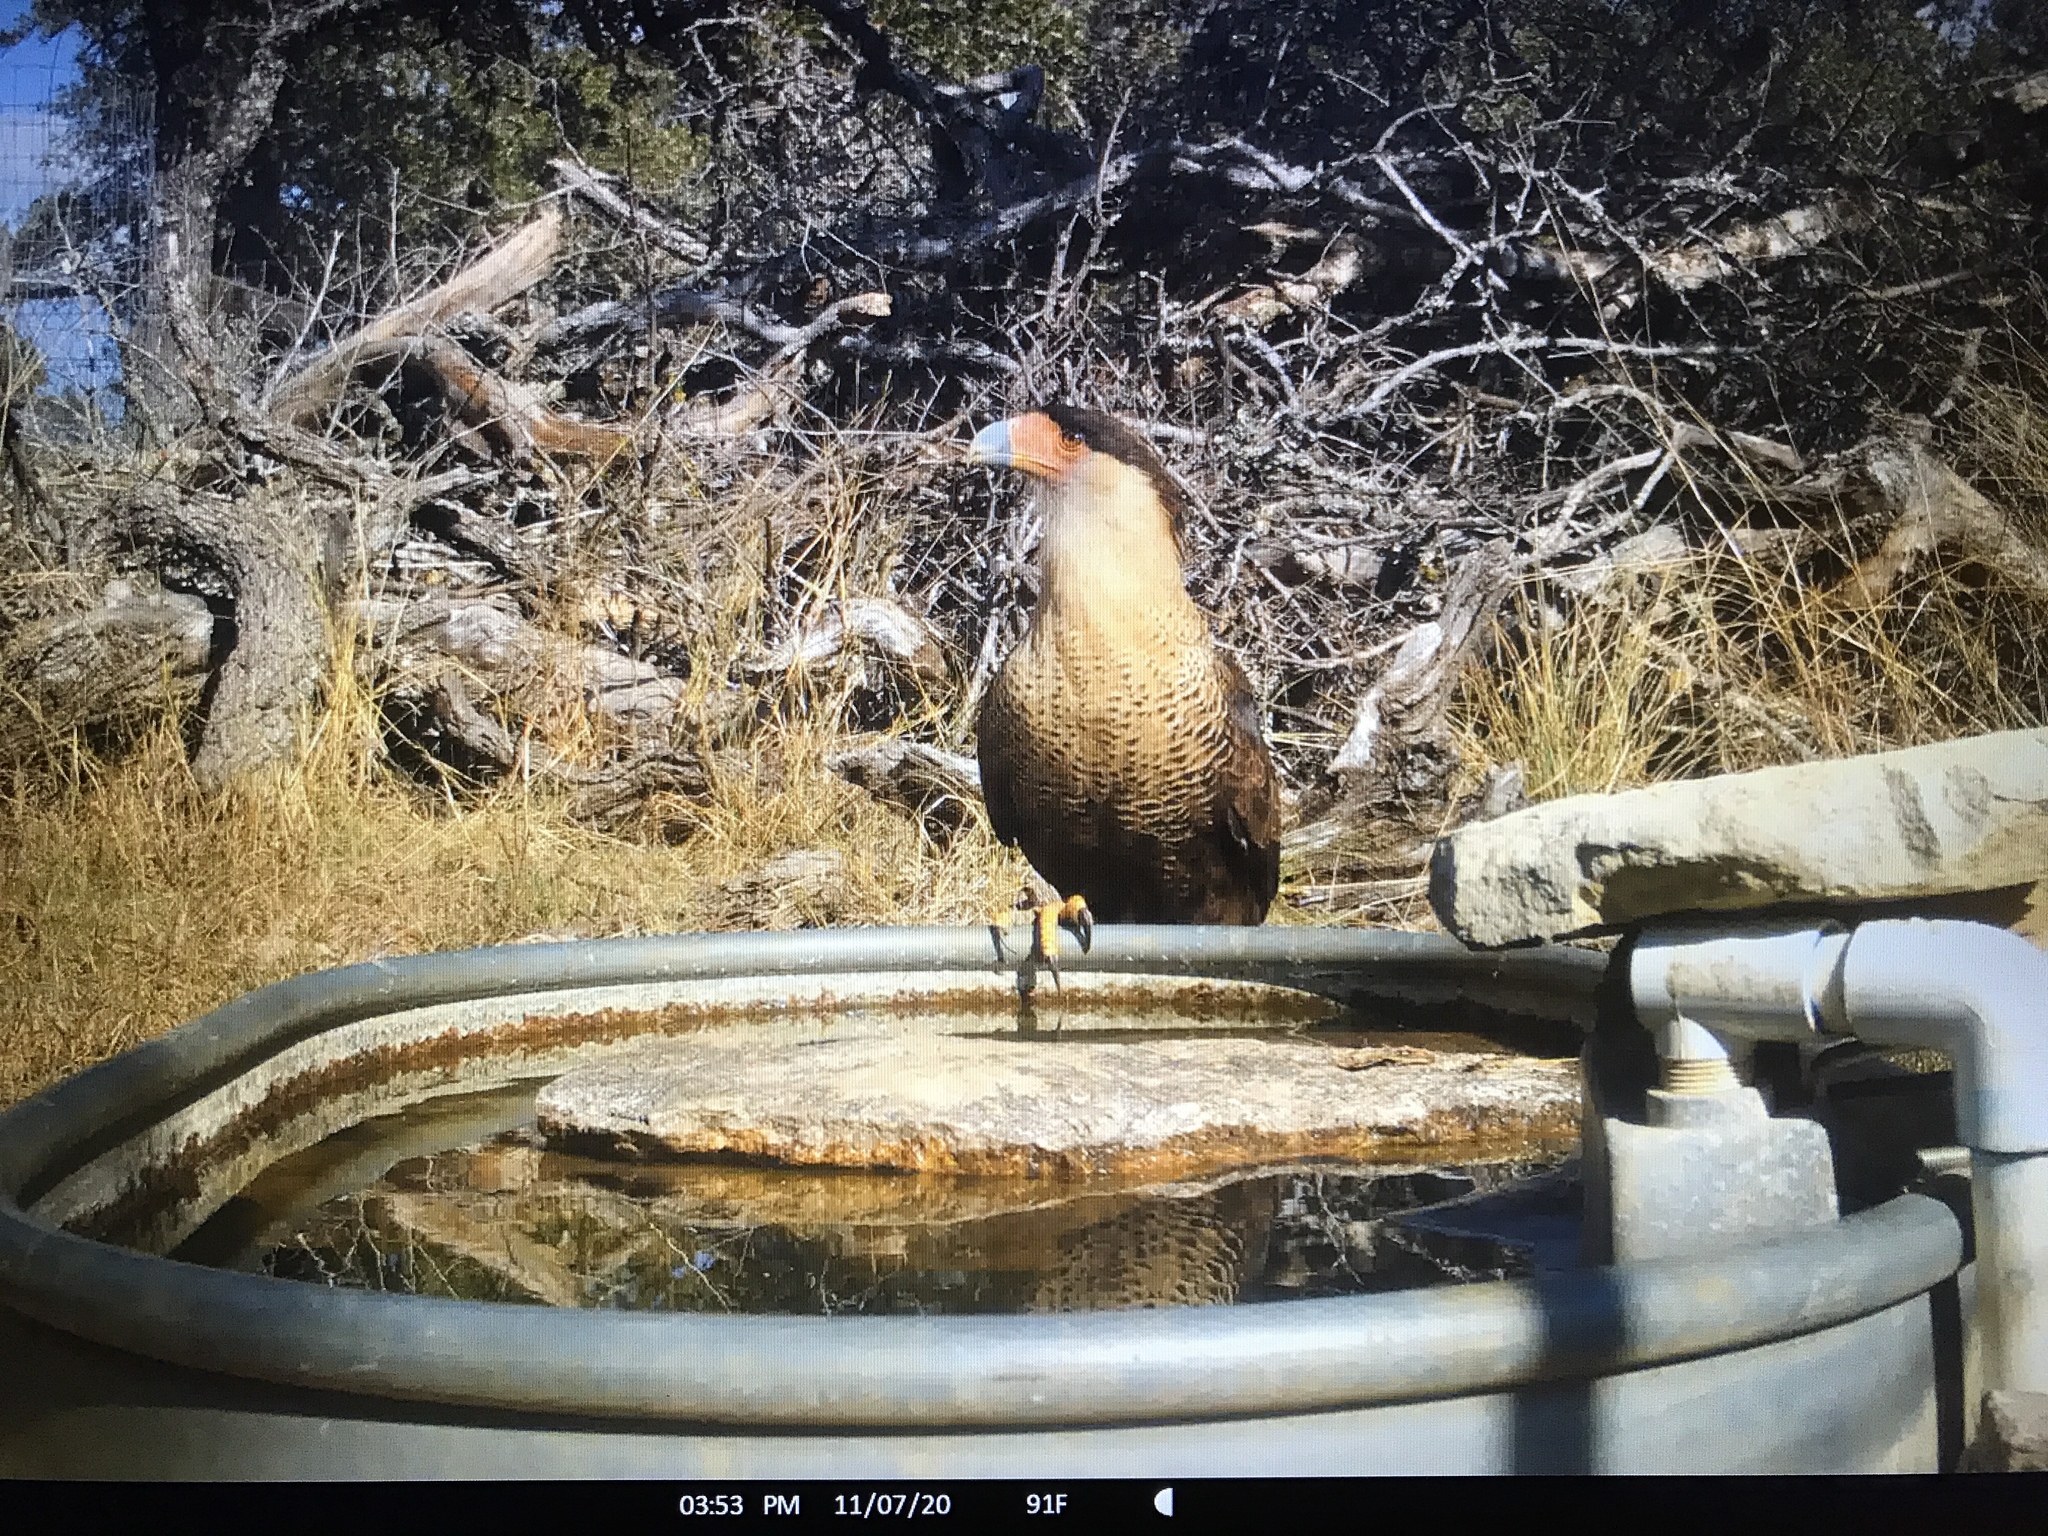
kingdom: Animalia
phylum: Chordata
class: Aves
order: Falconiformes
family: Falconidae
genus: Caracara
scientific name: Caracara plancus
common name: Southern caracara
